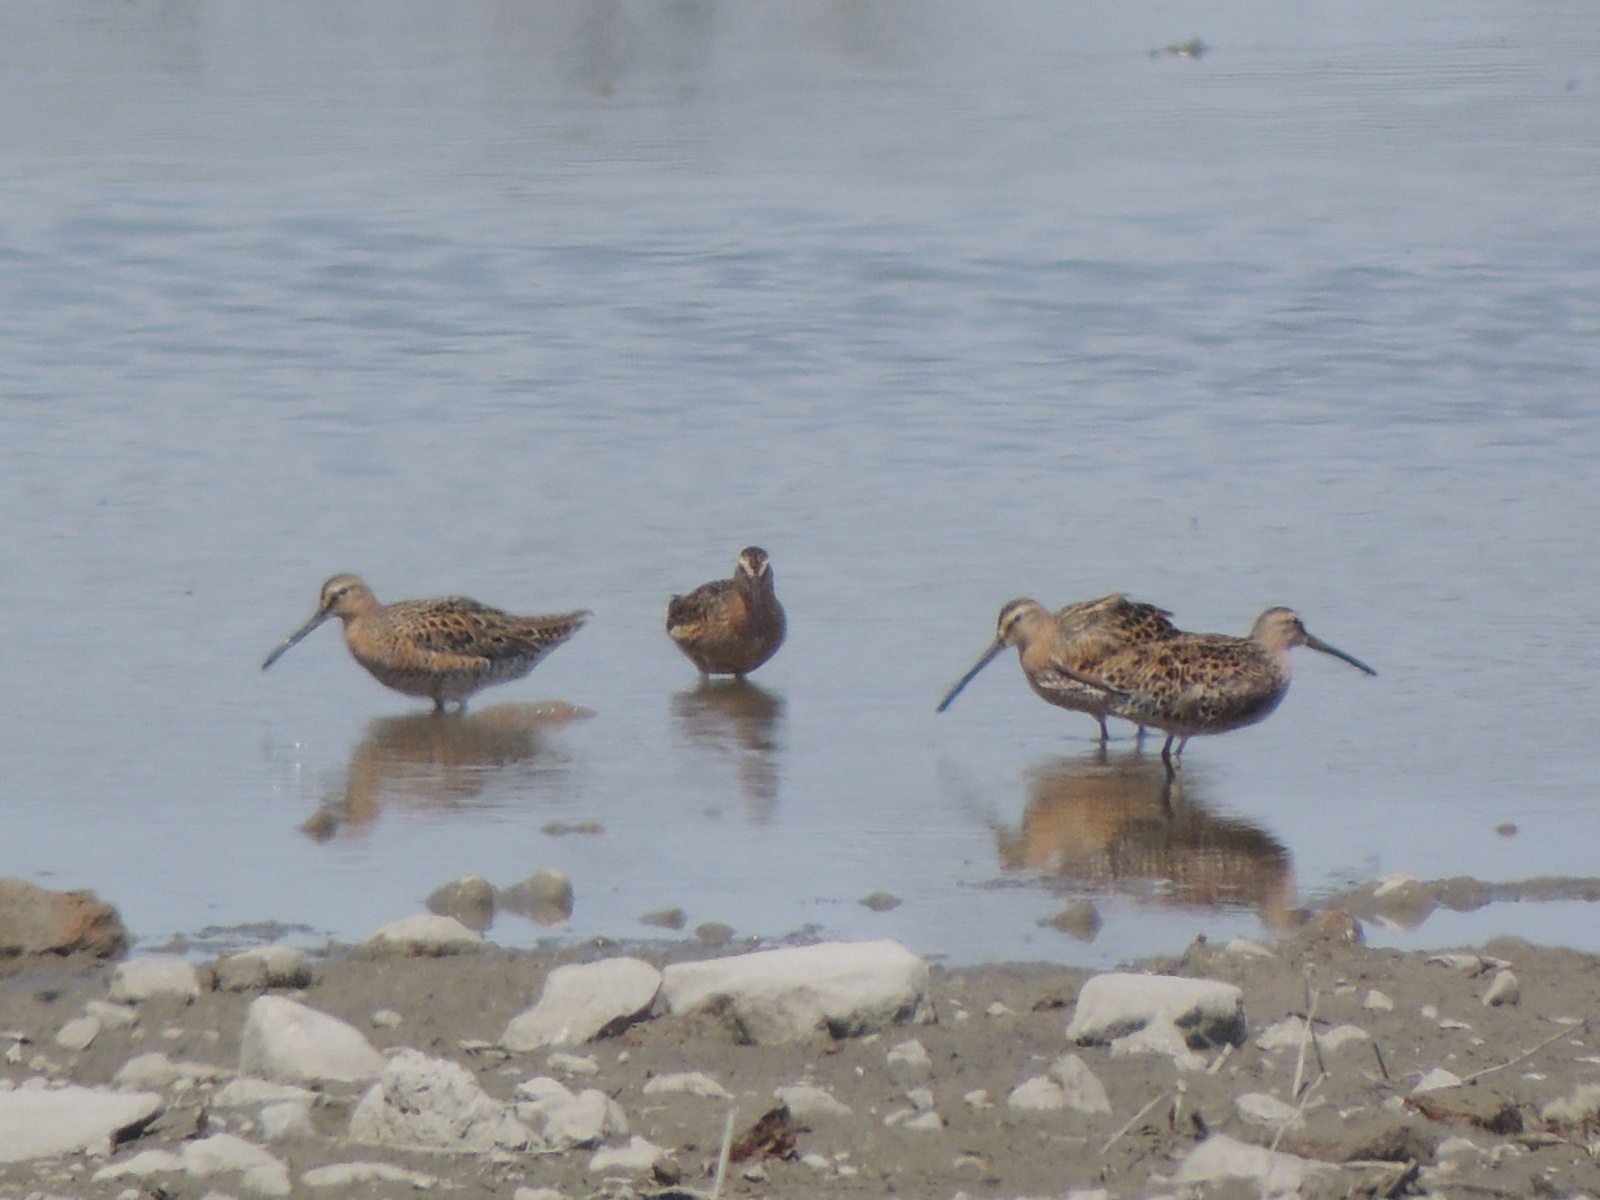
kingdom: Animalia
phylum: Chordata
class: Aves
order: Charadriiformes
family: Scolopacidae
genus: Limnodromus
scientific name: Limnodromus griseus
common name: Short-billed dowitcher
